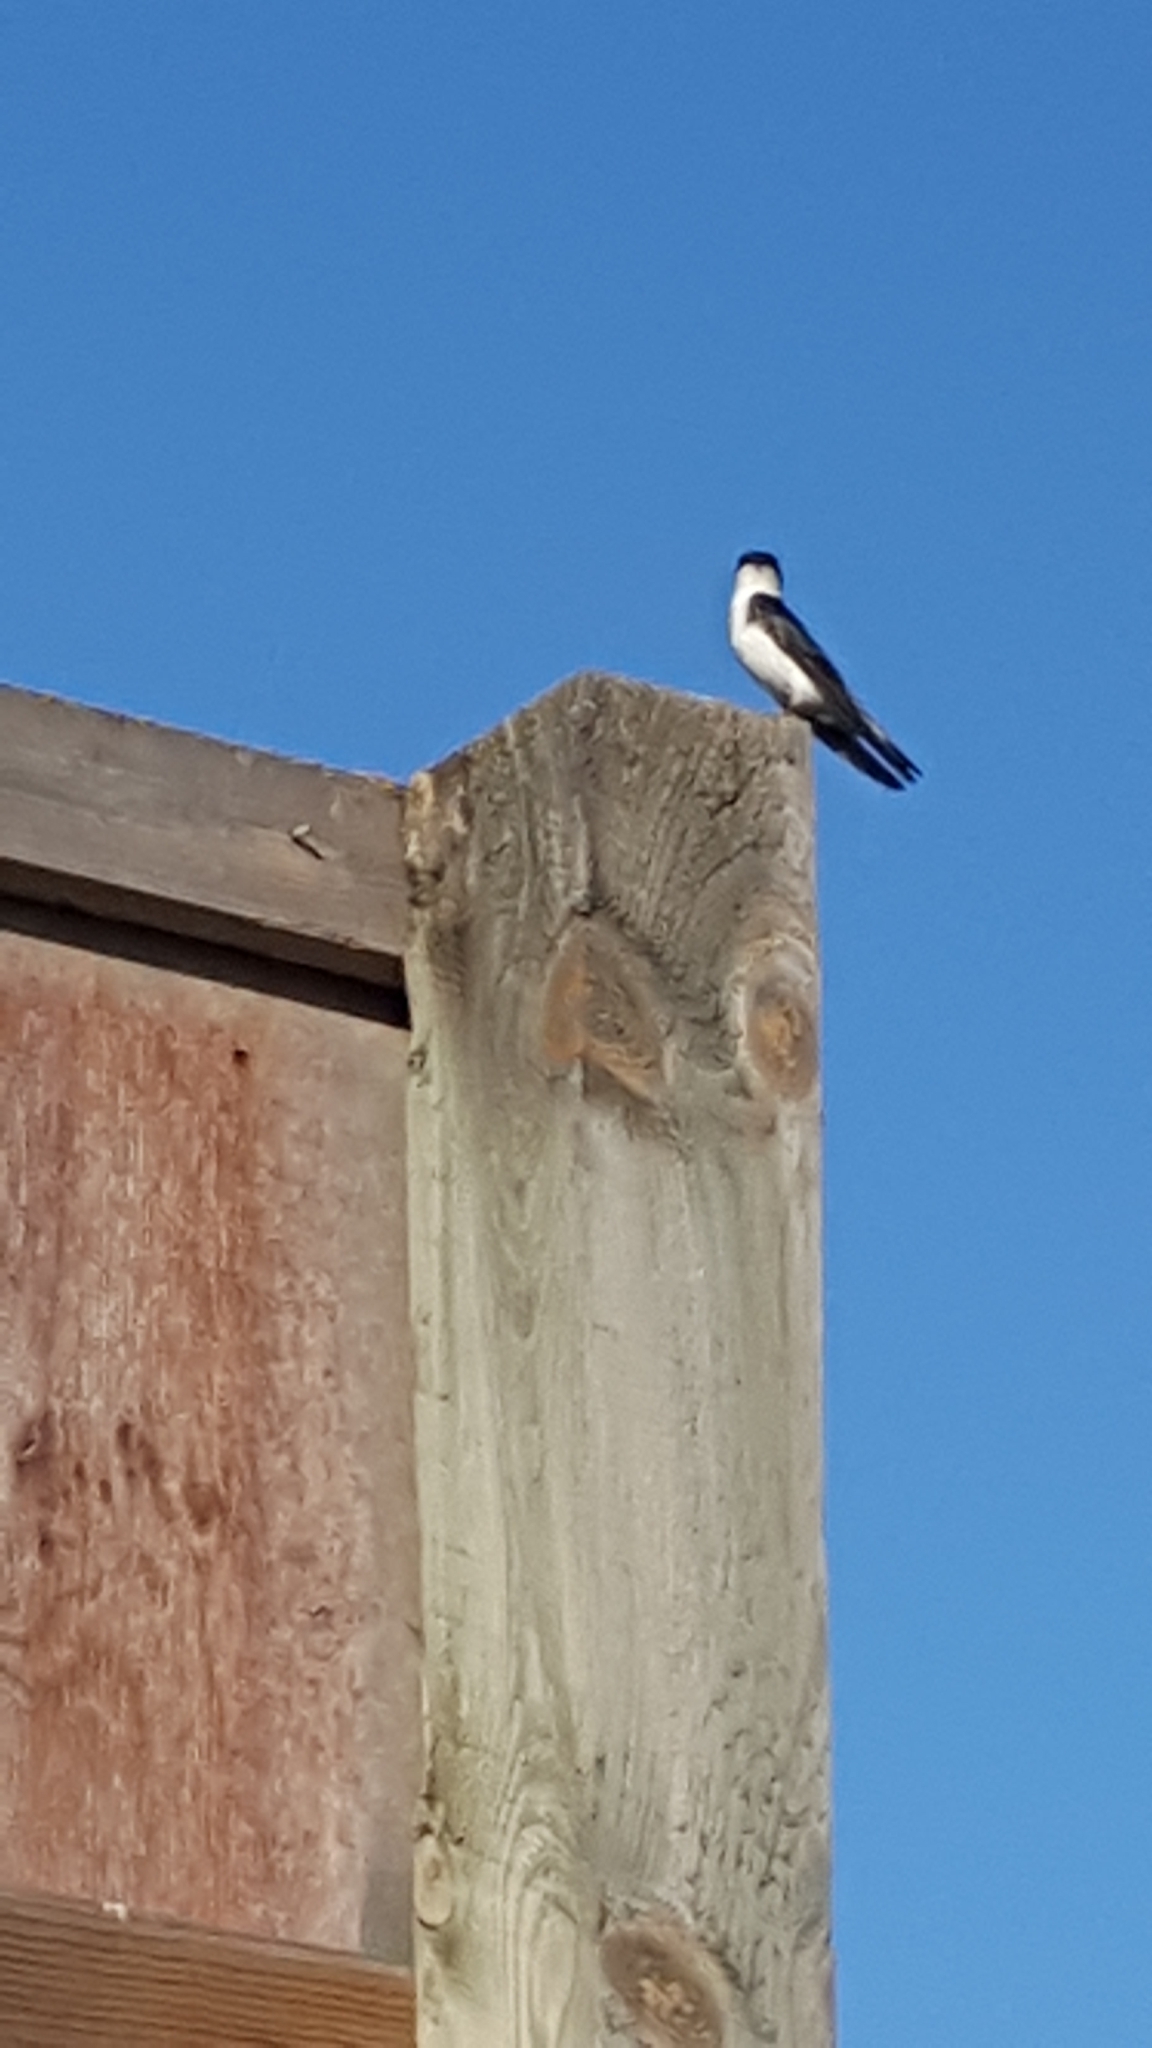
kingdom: Animalia
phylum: Chordata
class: Aves
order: Passeriformes
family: Hirundinidae
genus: Tachycineta
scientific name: Tachycineta bicolor
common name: Tree swallow
